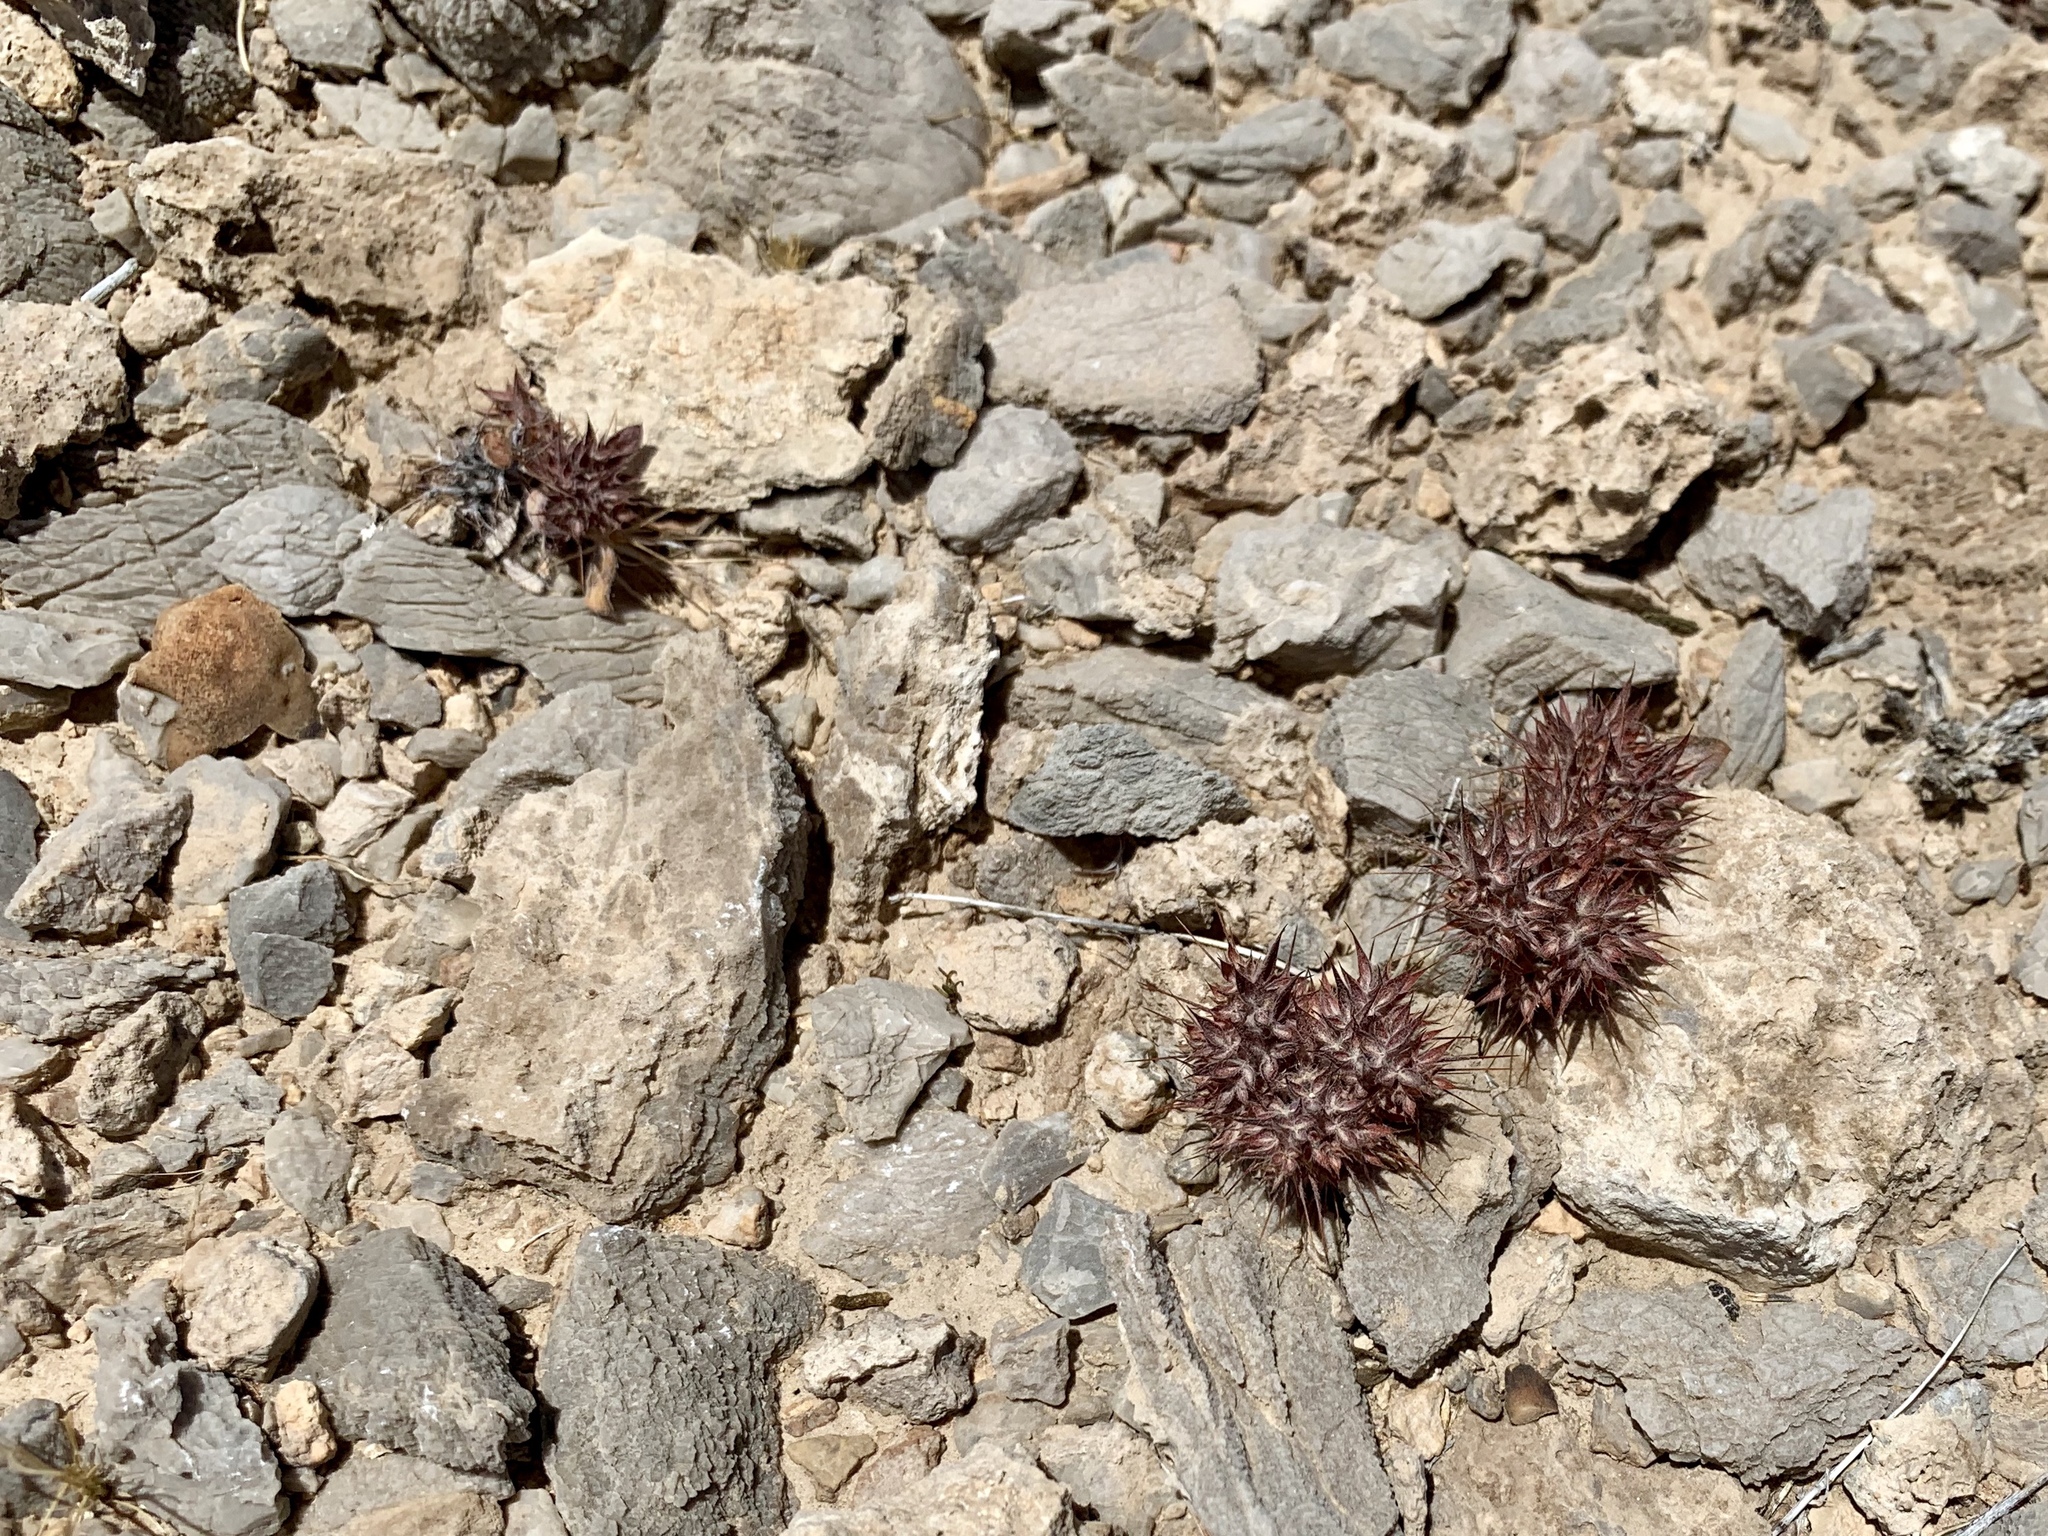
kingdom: Plantae
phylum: Tracheophyta
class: Magnoliopsida
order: Caryophyllales
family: Polygonaceae
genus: Chorizanthe
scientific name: Chorizanthe rigida
